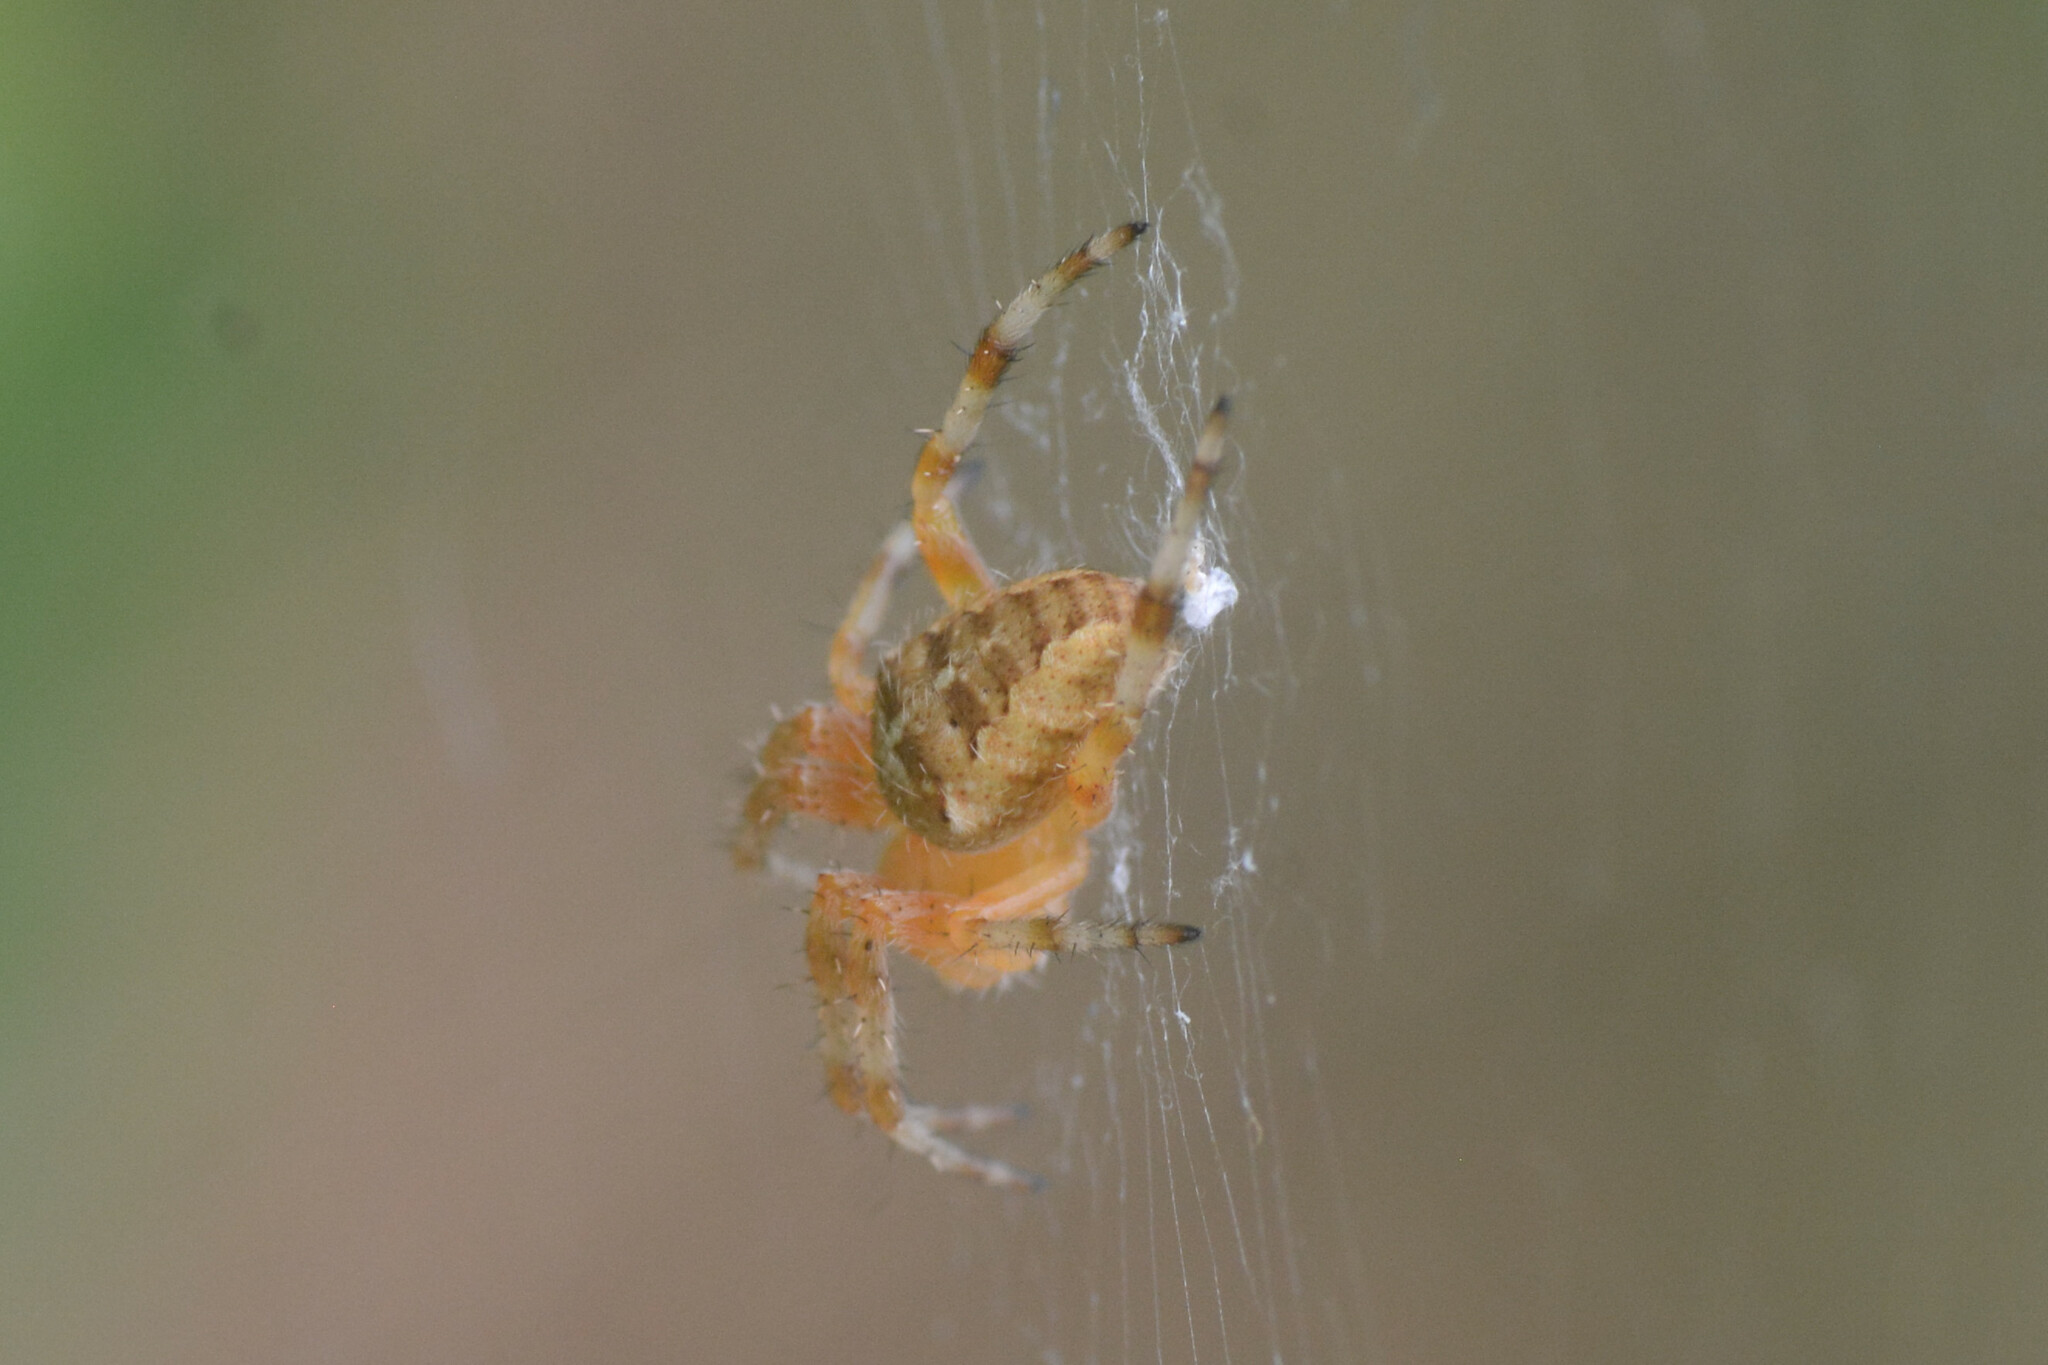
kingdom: Animalia
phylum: Arthropoda
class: Arachnida
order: Araneae
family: Araneidae
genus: Araneus
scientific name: Araneus diadematus
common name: Cross orbweaver
